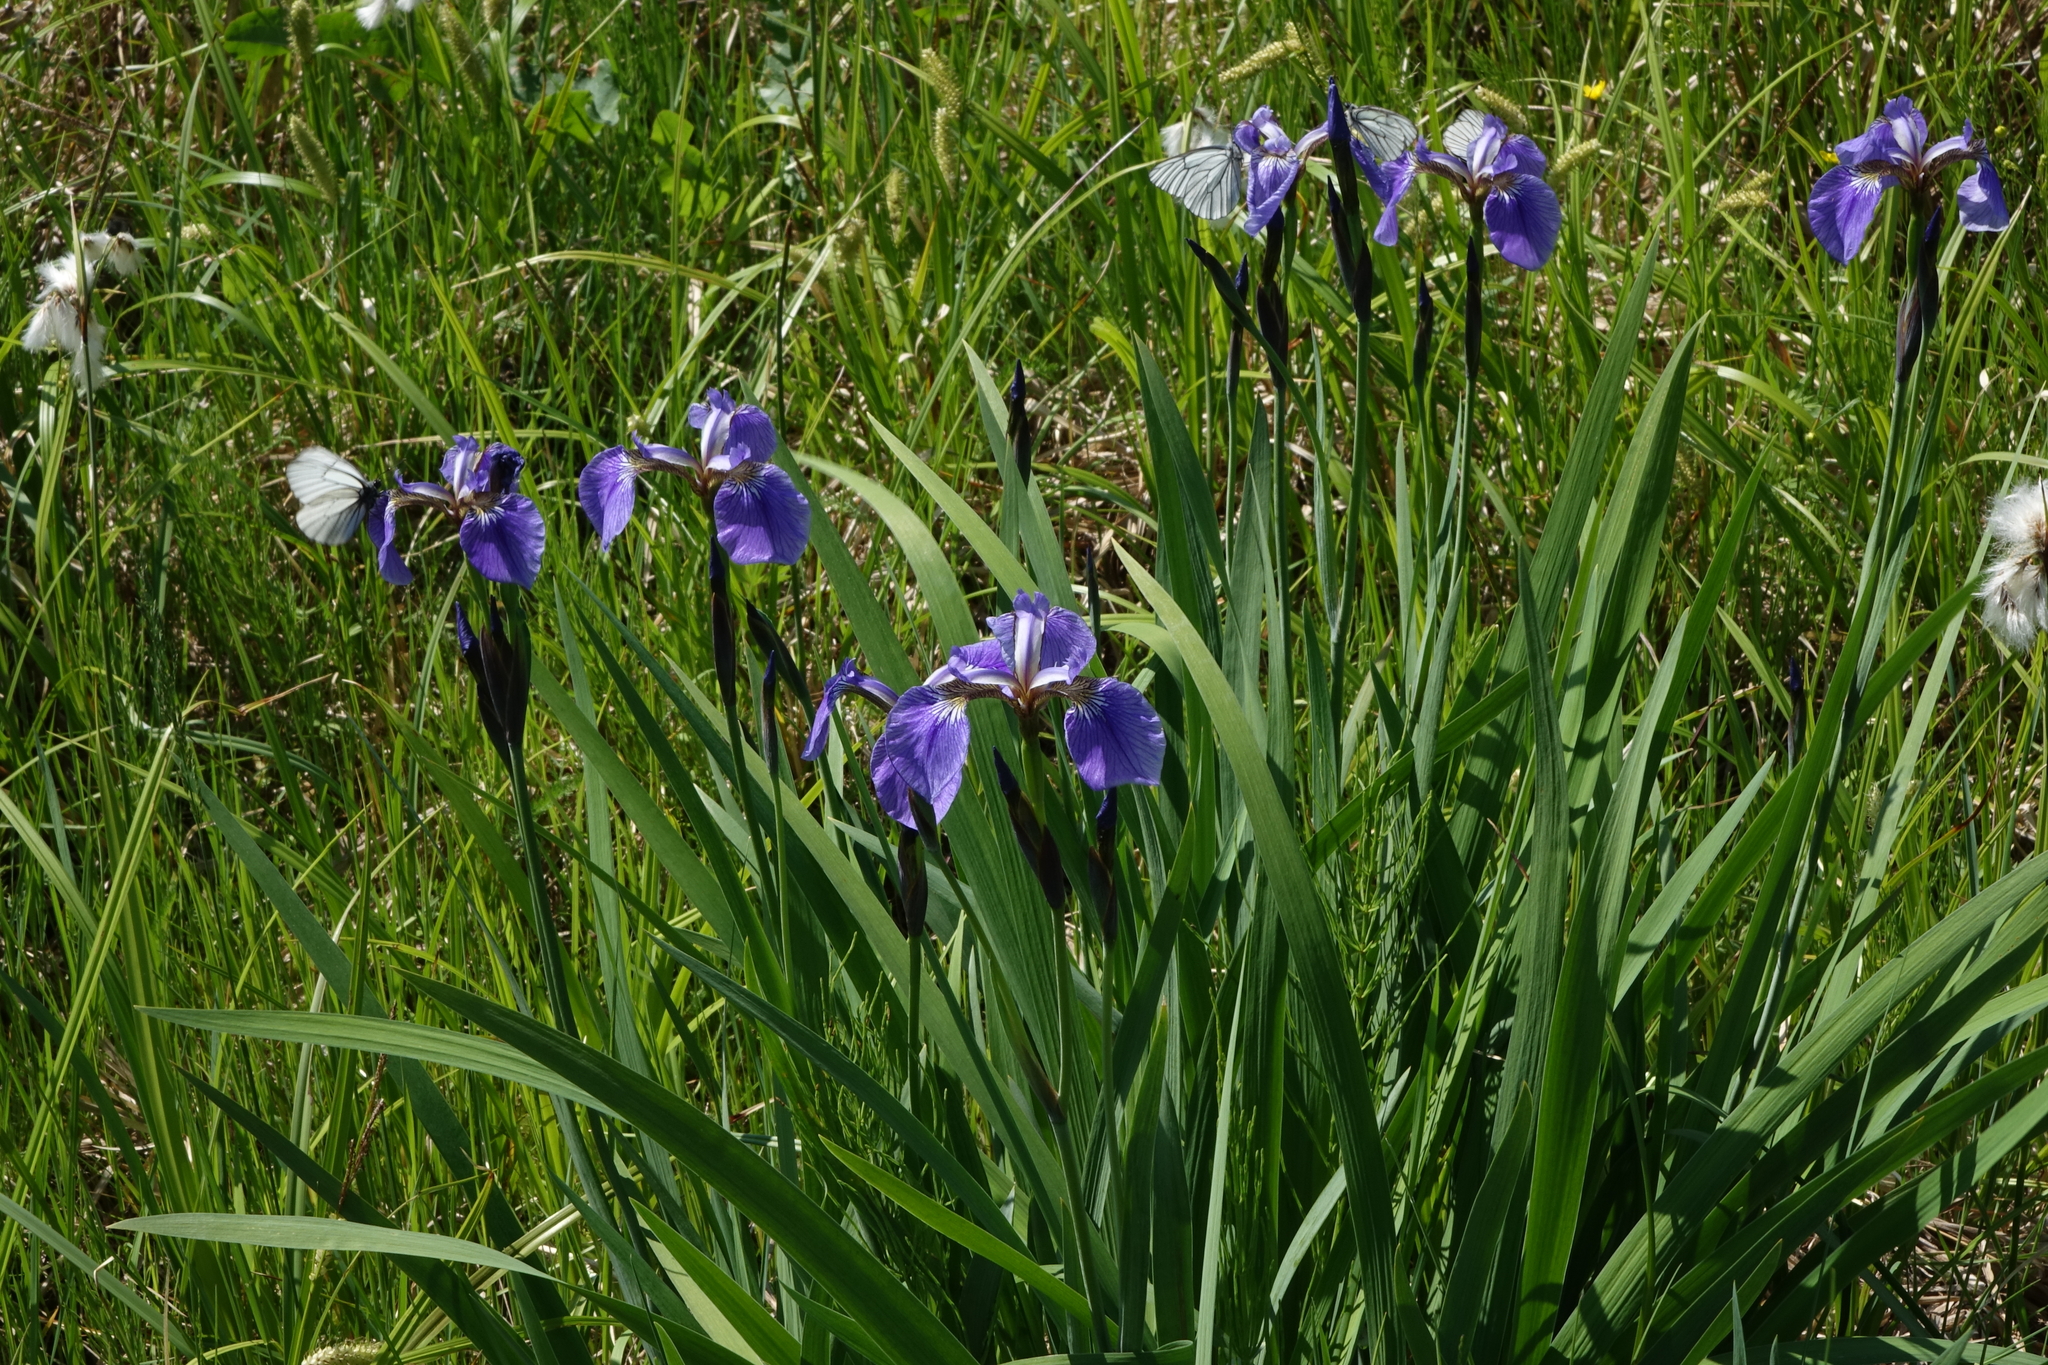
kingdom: Plantae
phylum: Tracheophyta
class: Liliopsida
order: Asparagales
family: Iridaceae
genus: Iris
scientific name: Iris setosa
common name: Arctic blue flag
